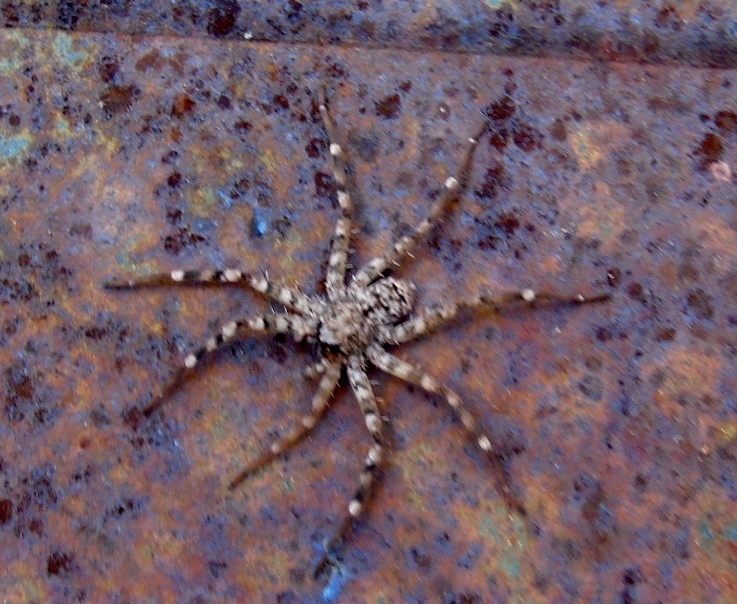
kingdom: Animalia
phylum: Arthropoda
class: Arachnida
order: Araneae
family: Selenopidae
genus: Selenops
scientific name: Selenops
